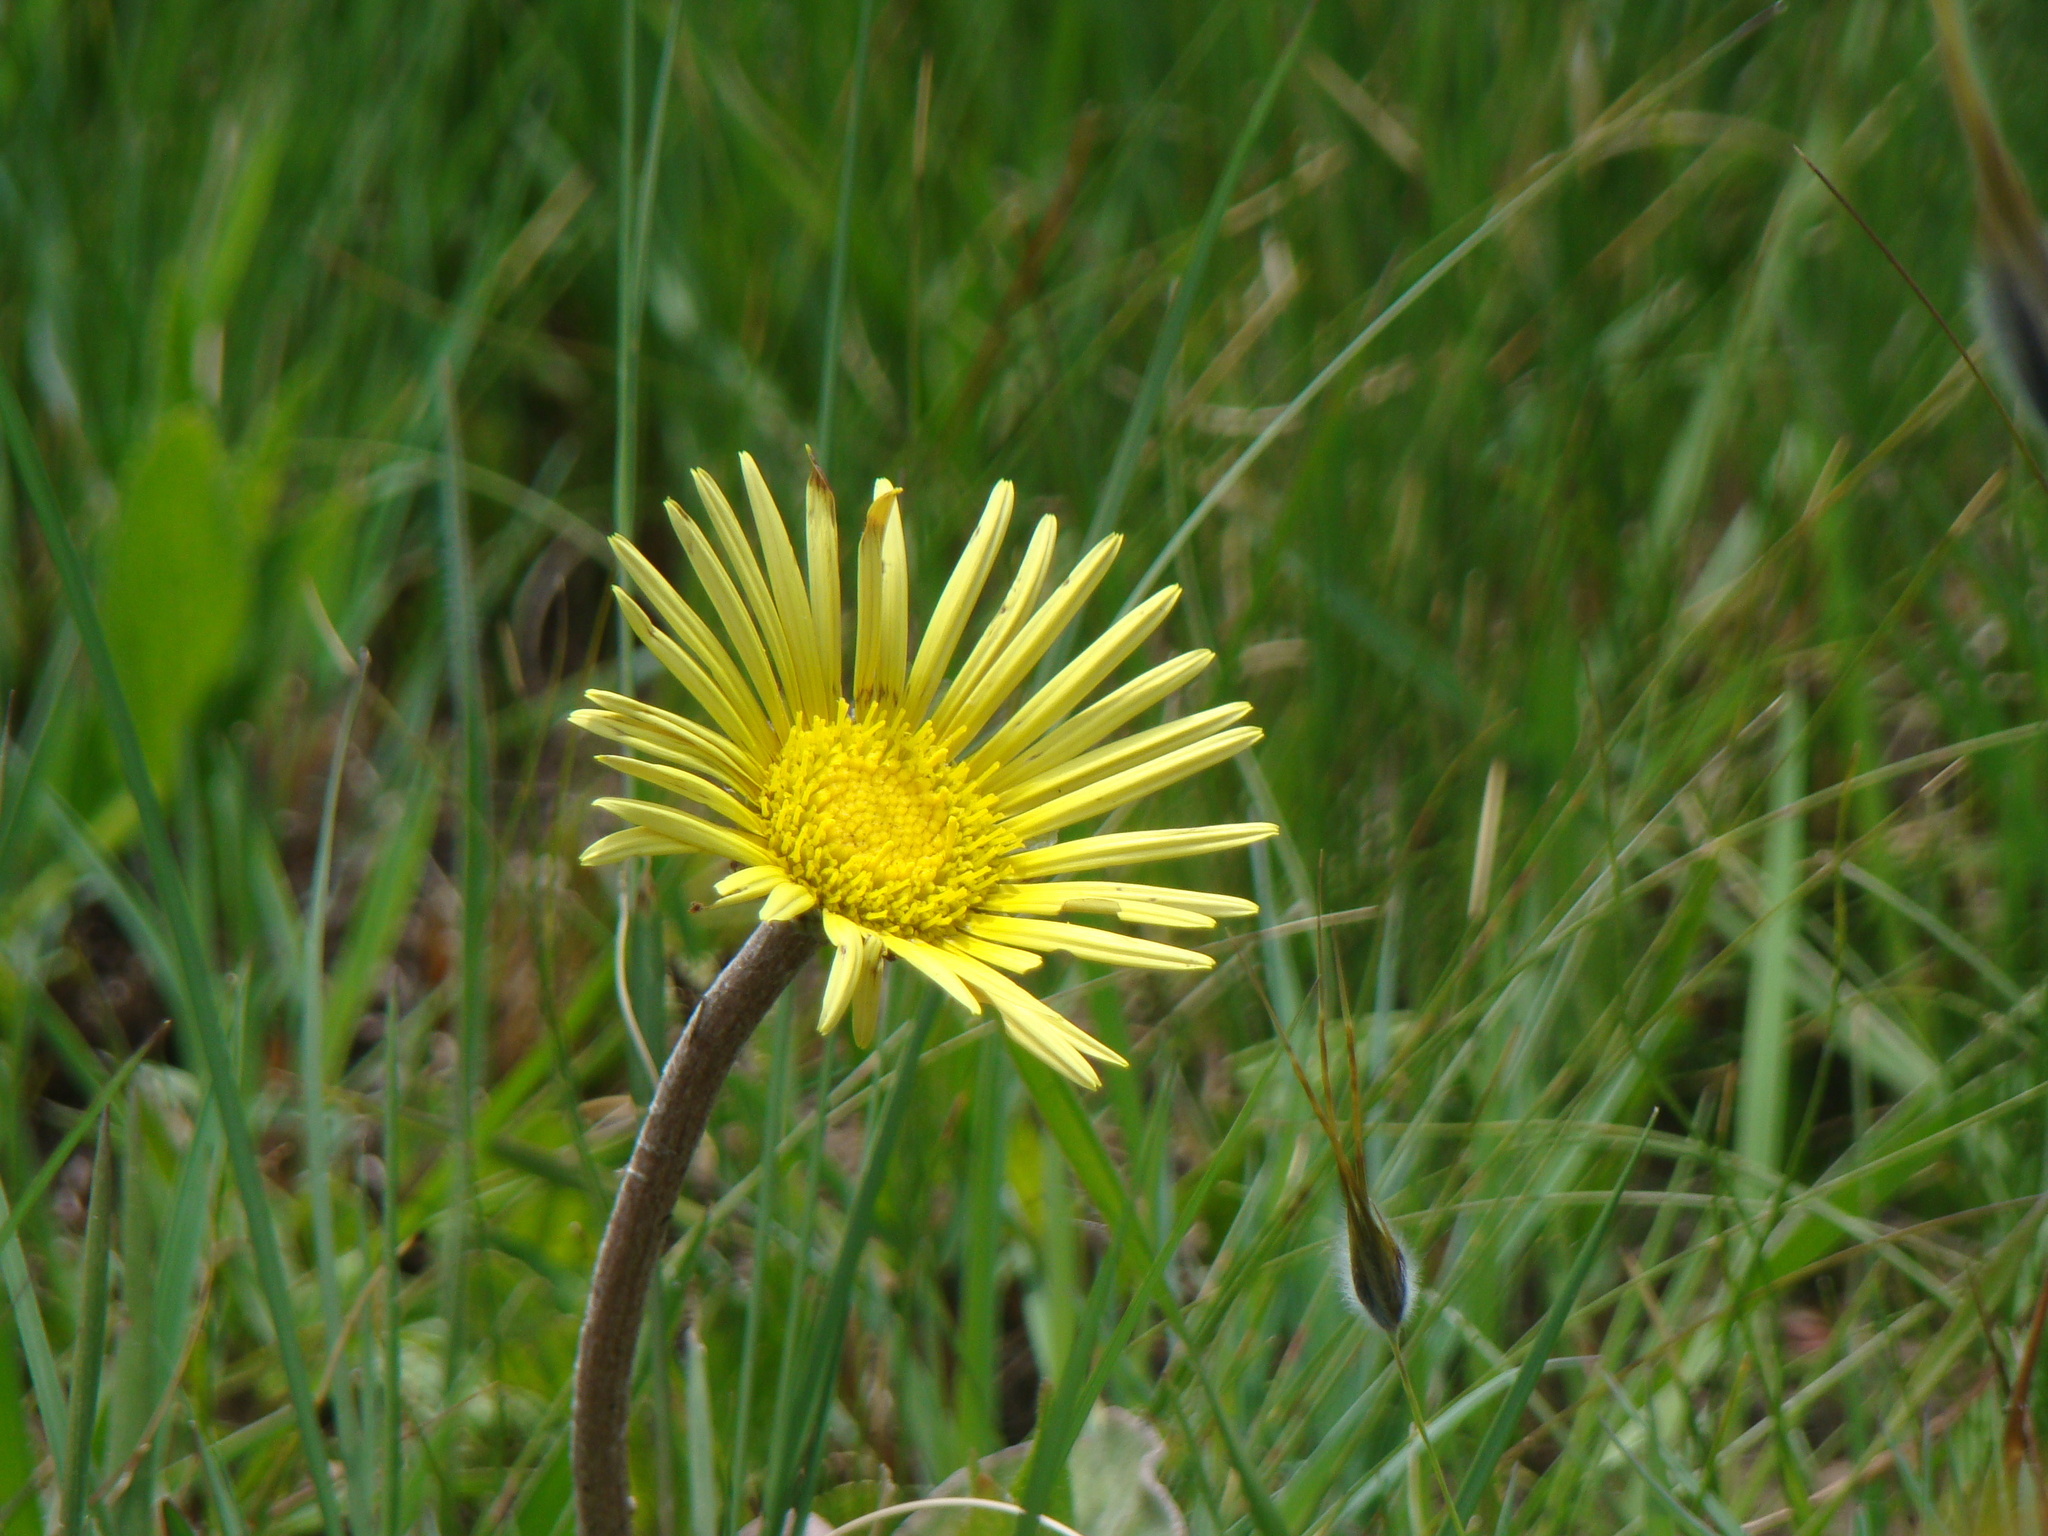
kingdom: Plantae
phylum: Tracheophyta
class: Magnoliopsida
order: Asterales
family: Asteraceae
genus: Haplocarpha
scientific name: Haplocarpha scaposa
